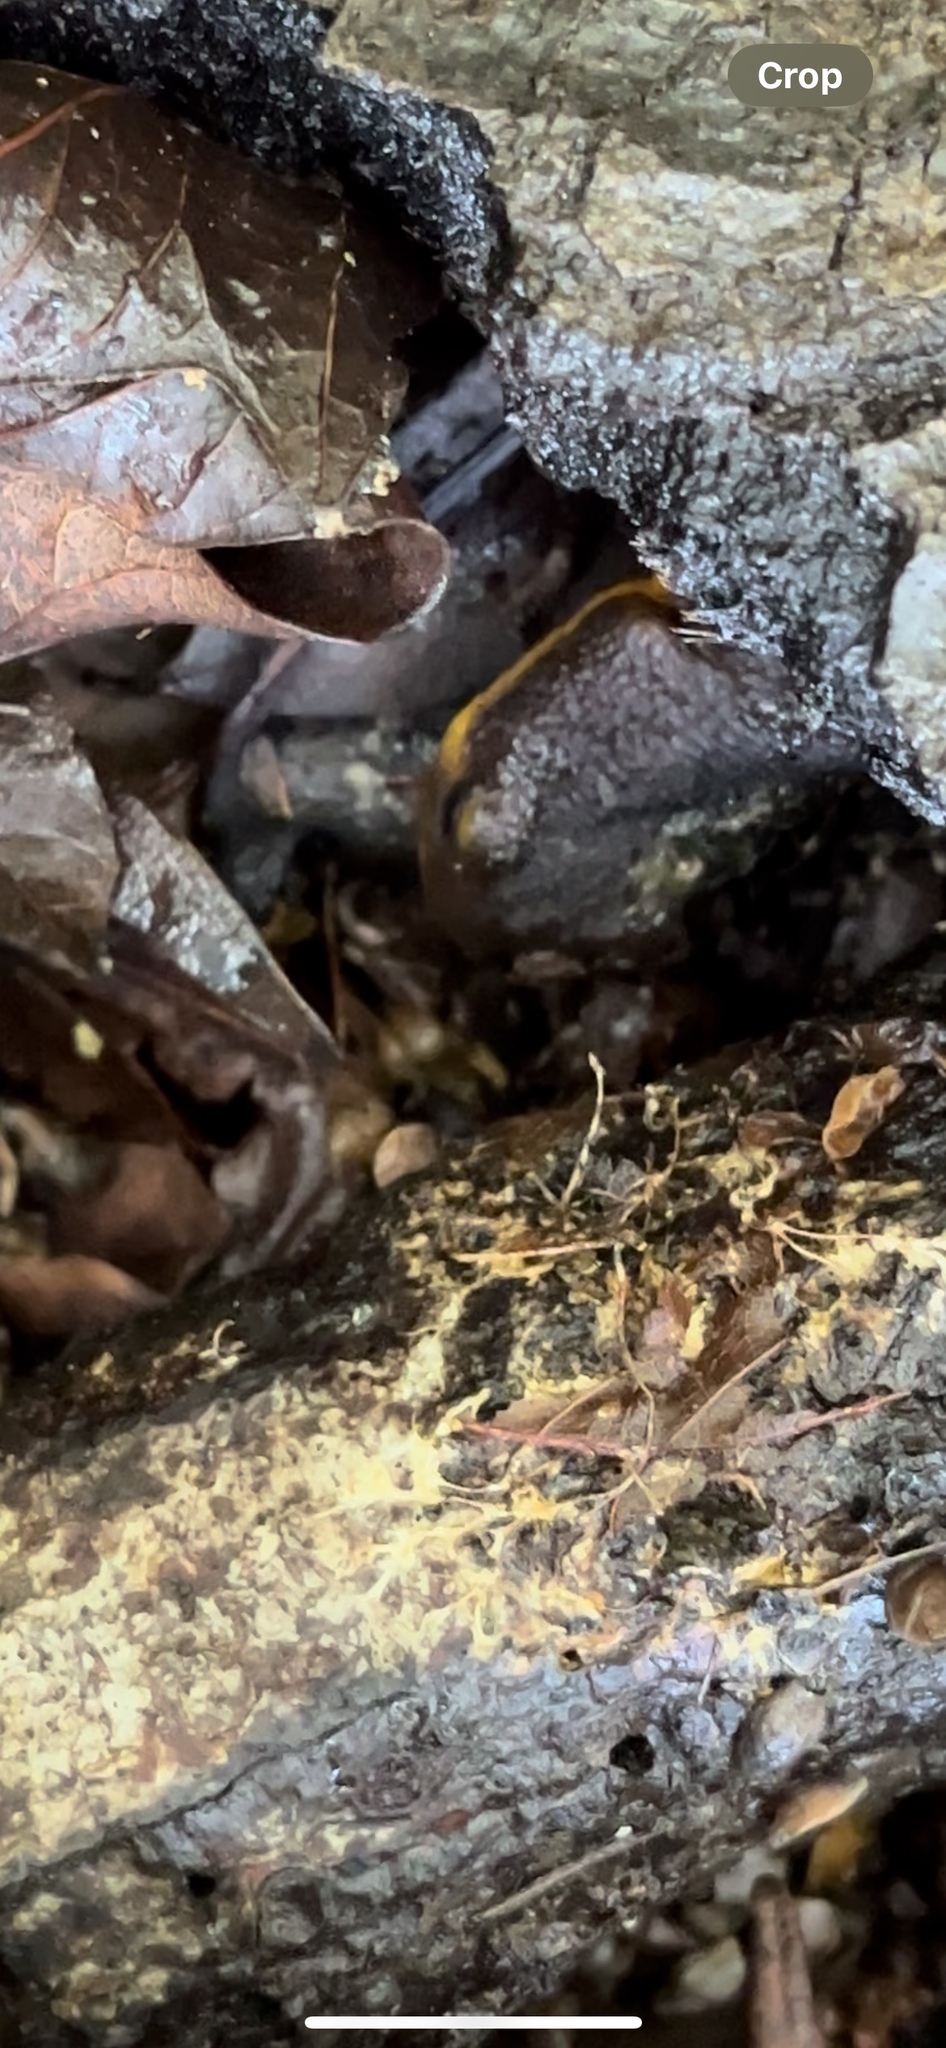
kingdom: Animalia
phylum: Chordata
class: Amphibia
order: Caudata
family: Salamandridae
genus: Taricha
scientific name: Taricha granulosa
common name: Roughskin newt
